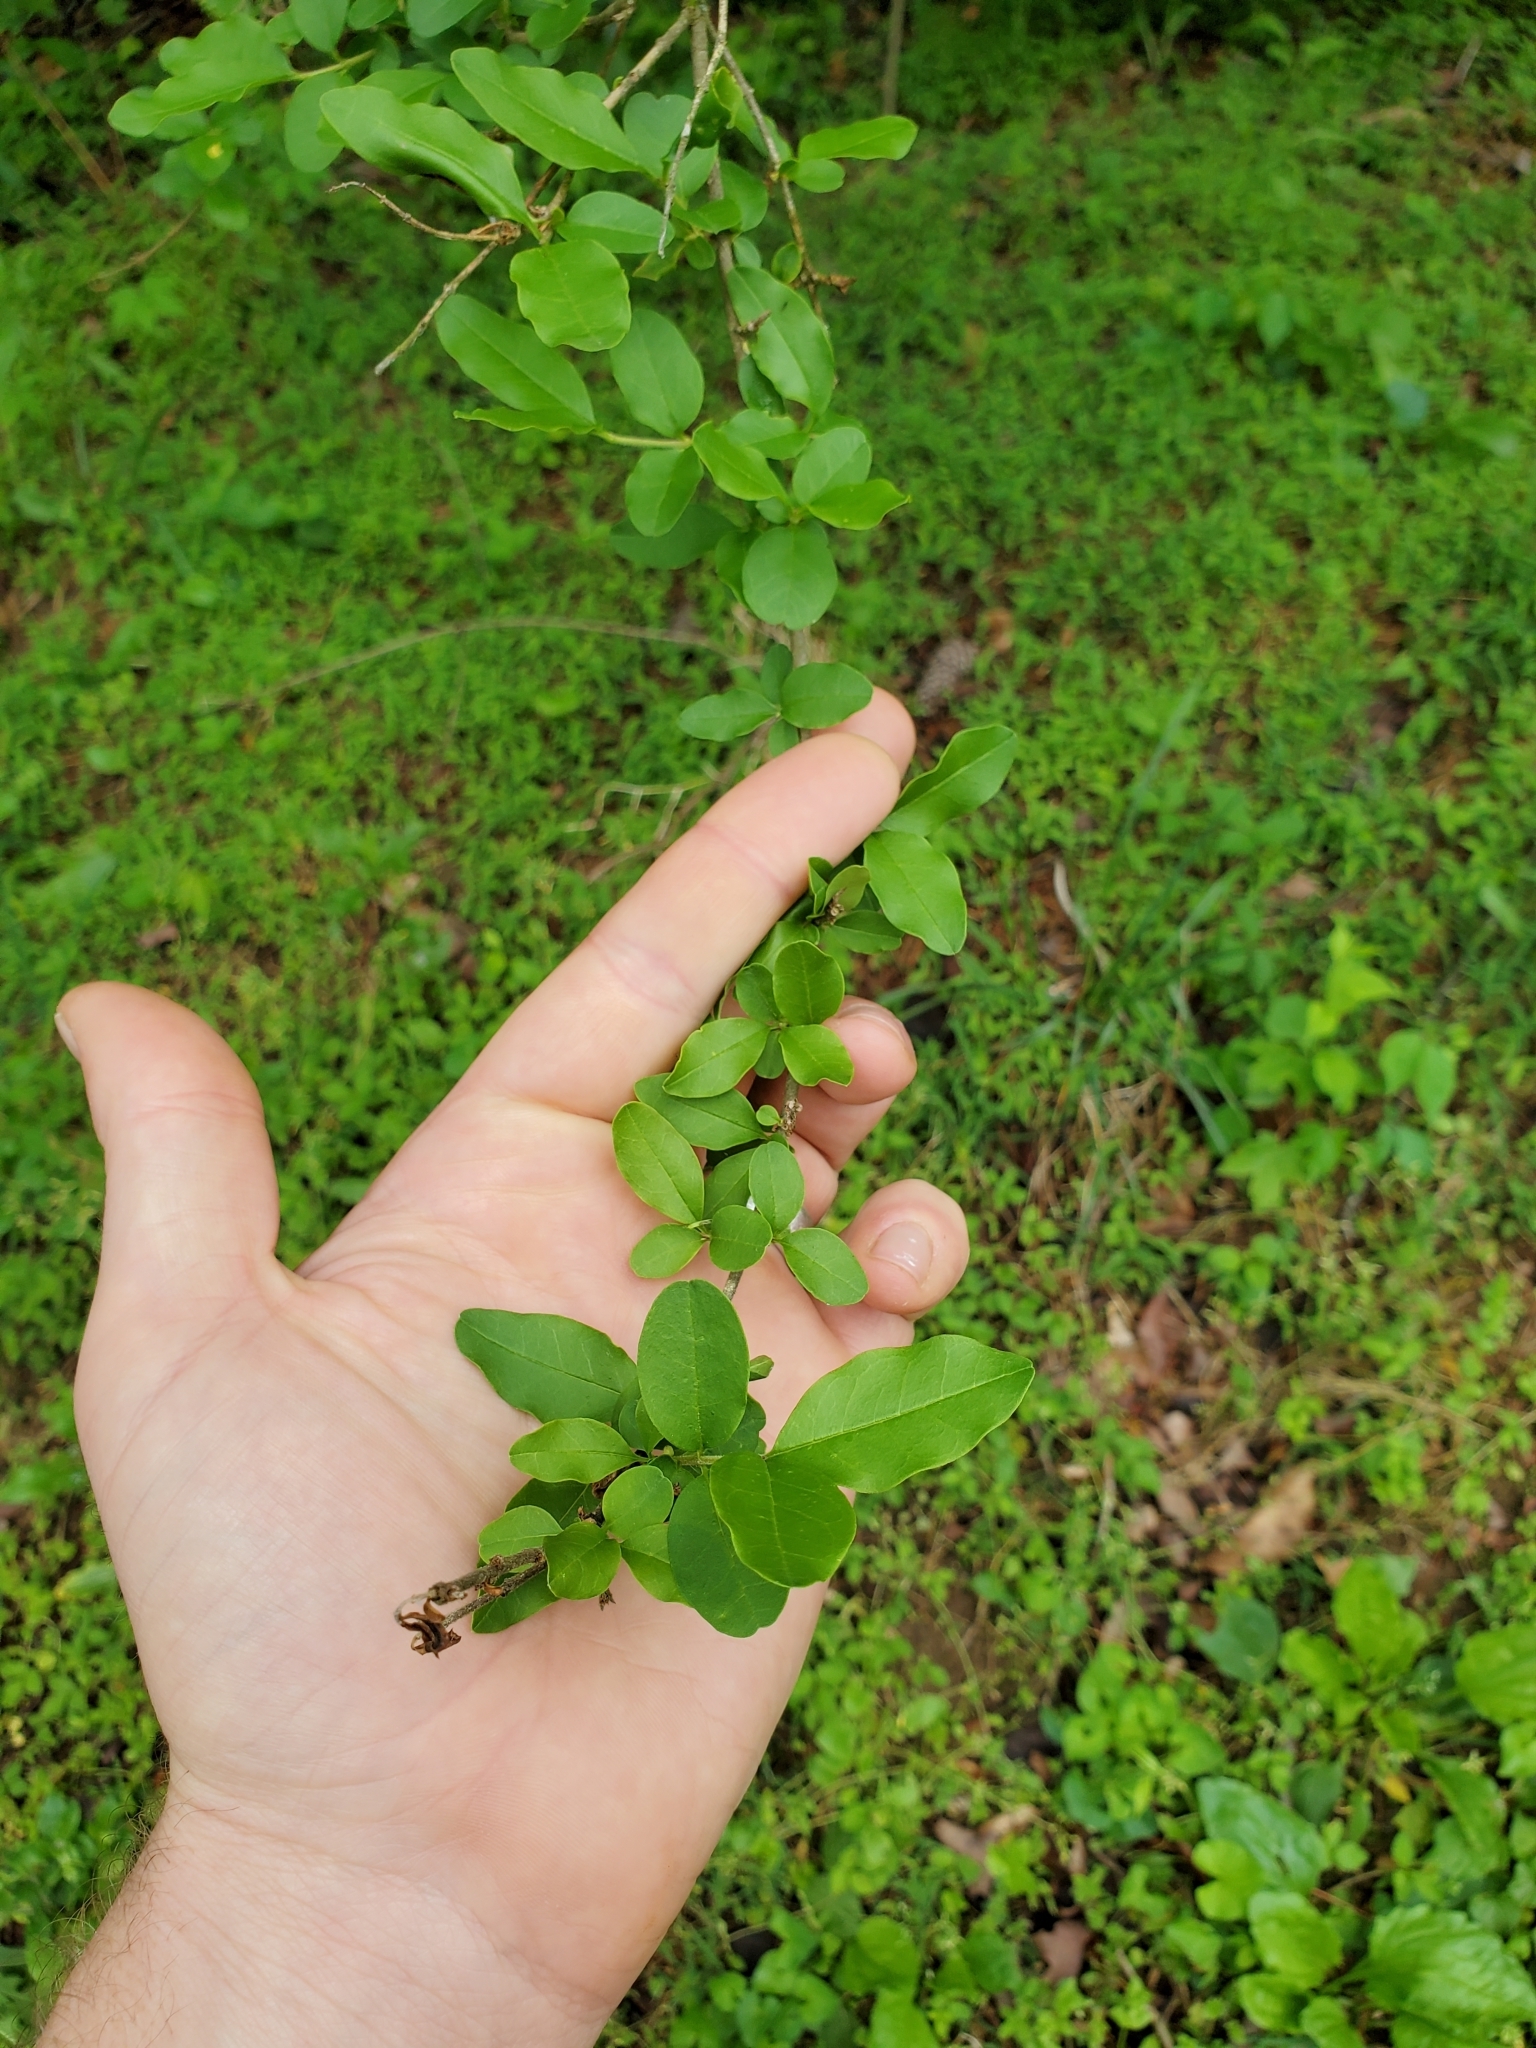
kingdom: Plantae
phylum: Tracheophyta
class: Magnoliopsida
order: Lamiales
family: Oleaceae
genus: Ligustrum
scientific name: Ligustrum sinense
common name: Chinese privet
